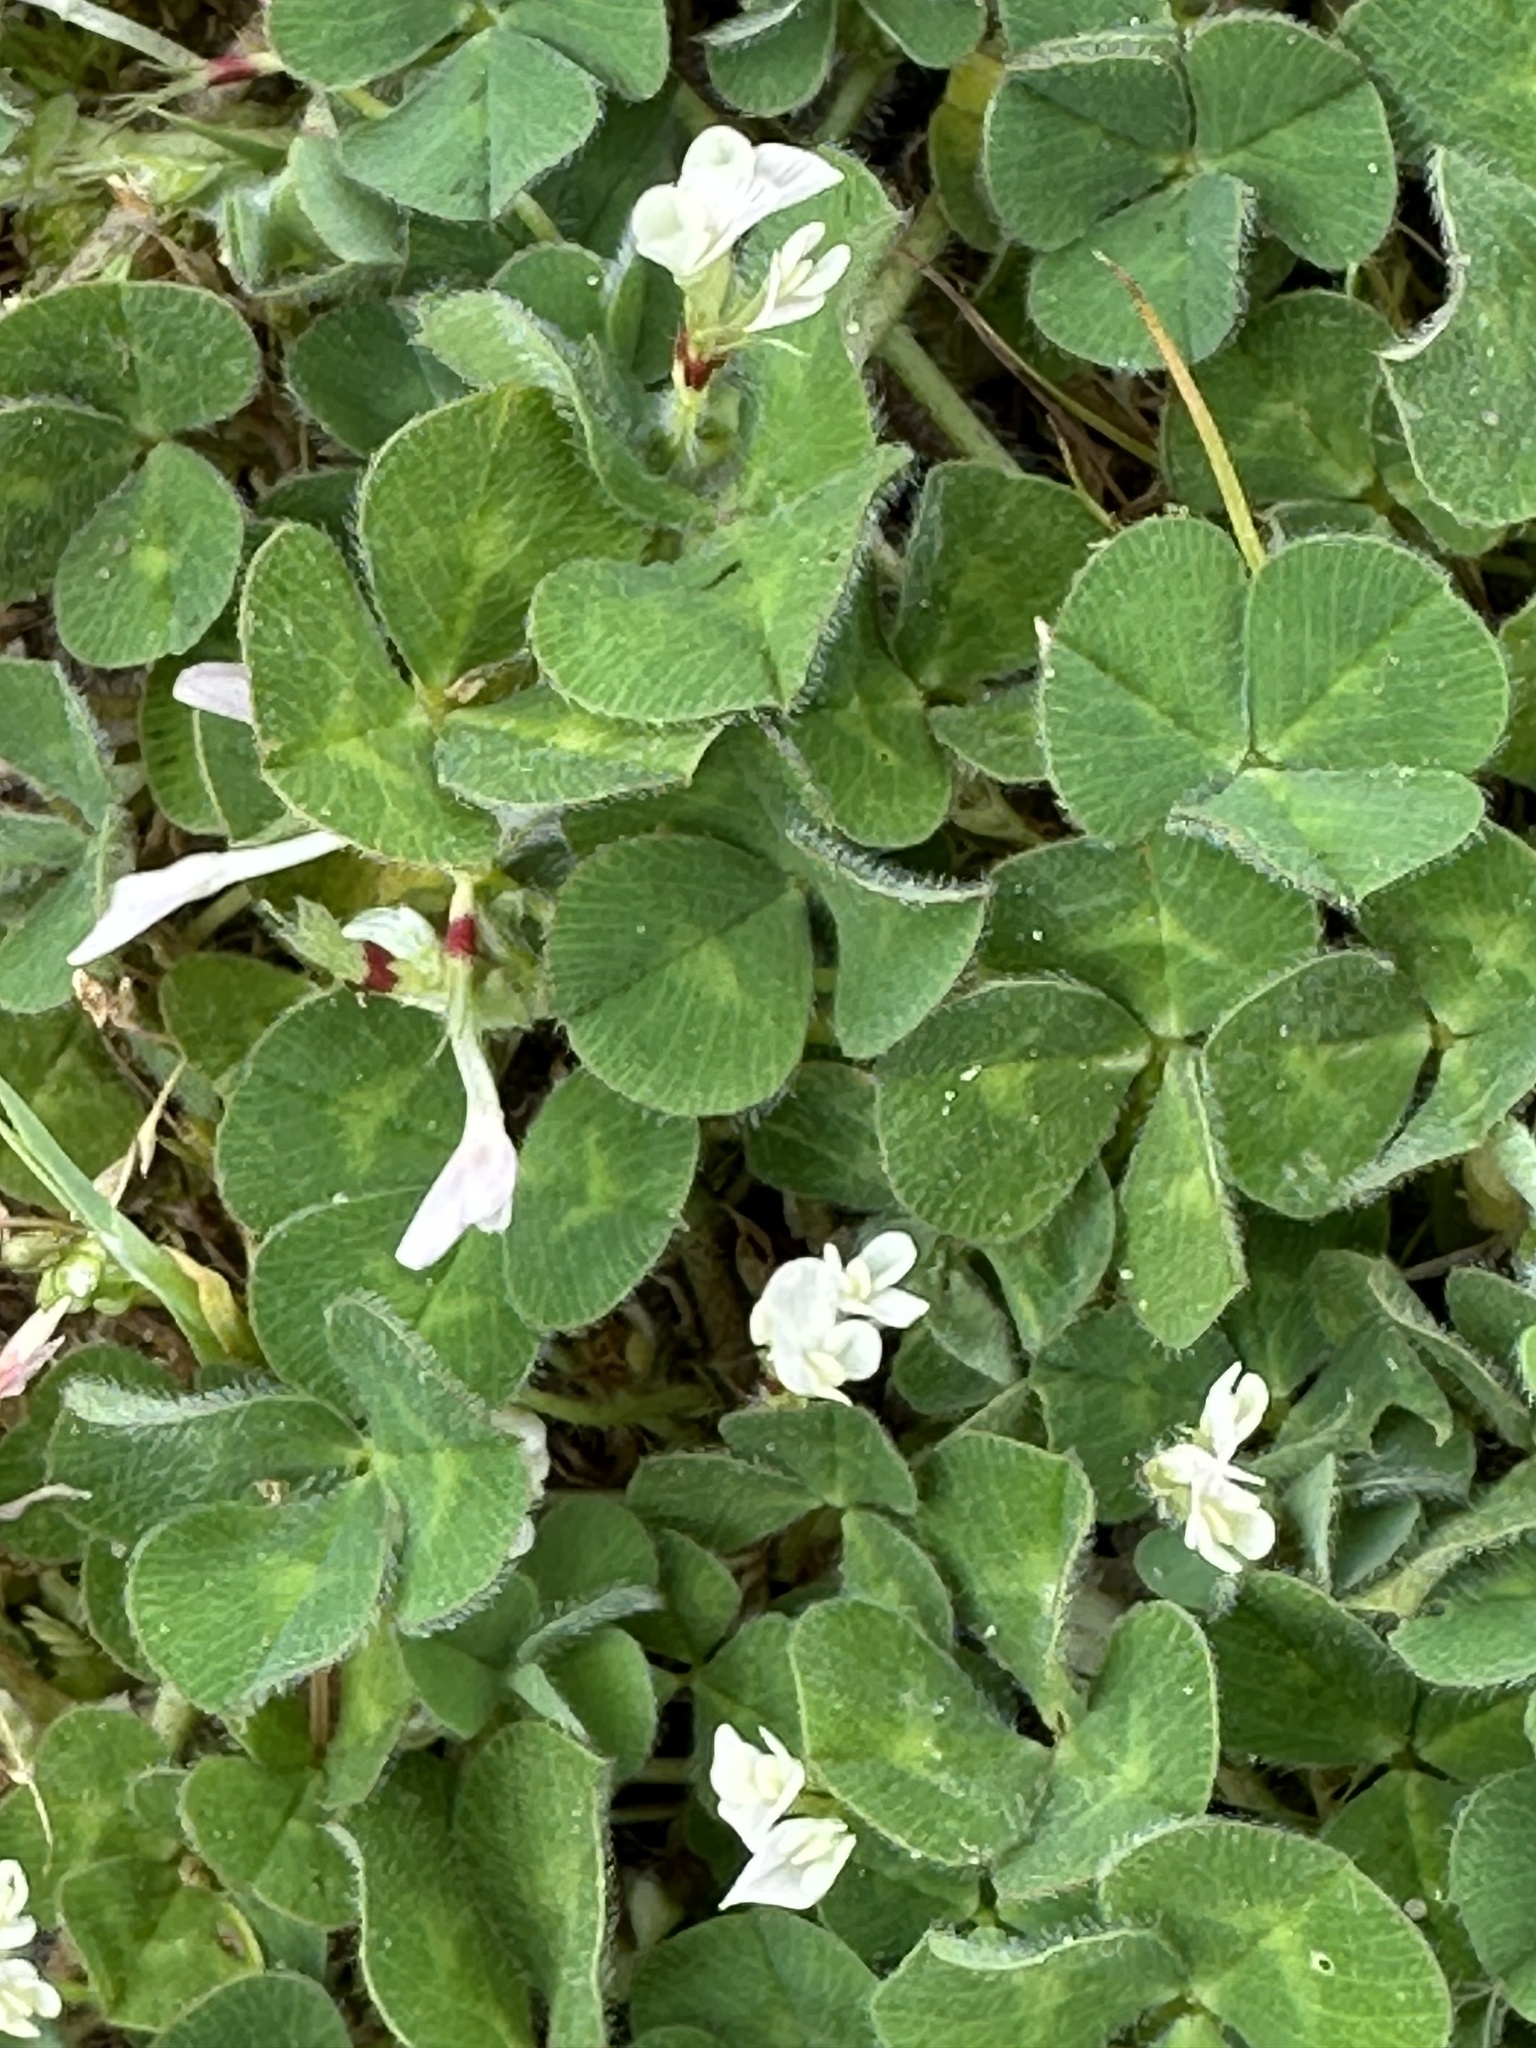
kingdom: Plantae
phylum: Tracheophyta
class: Magnoliopsida
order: Fabales
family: Fabaceae
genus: Trifolium
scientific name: Trifolium subterraneum
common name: Subterranean clover
